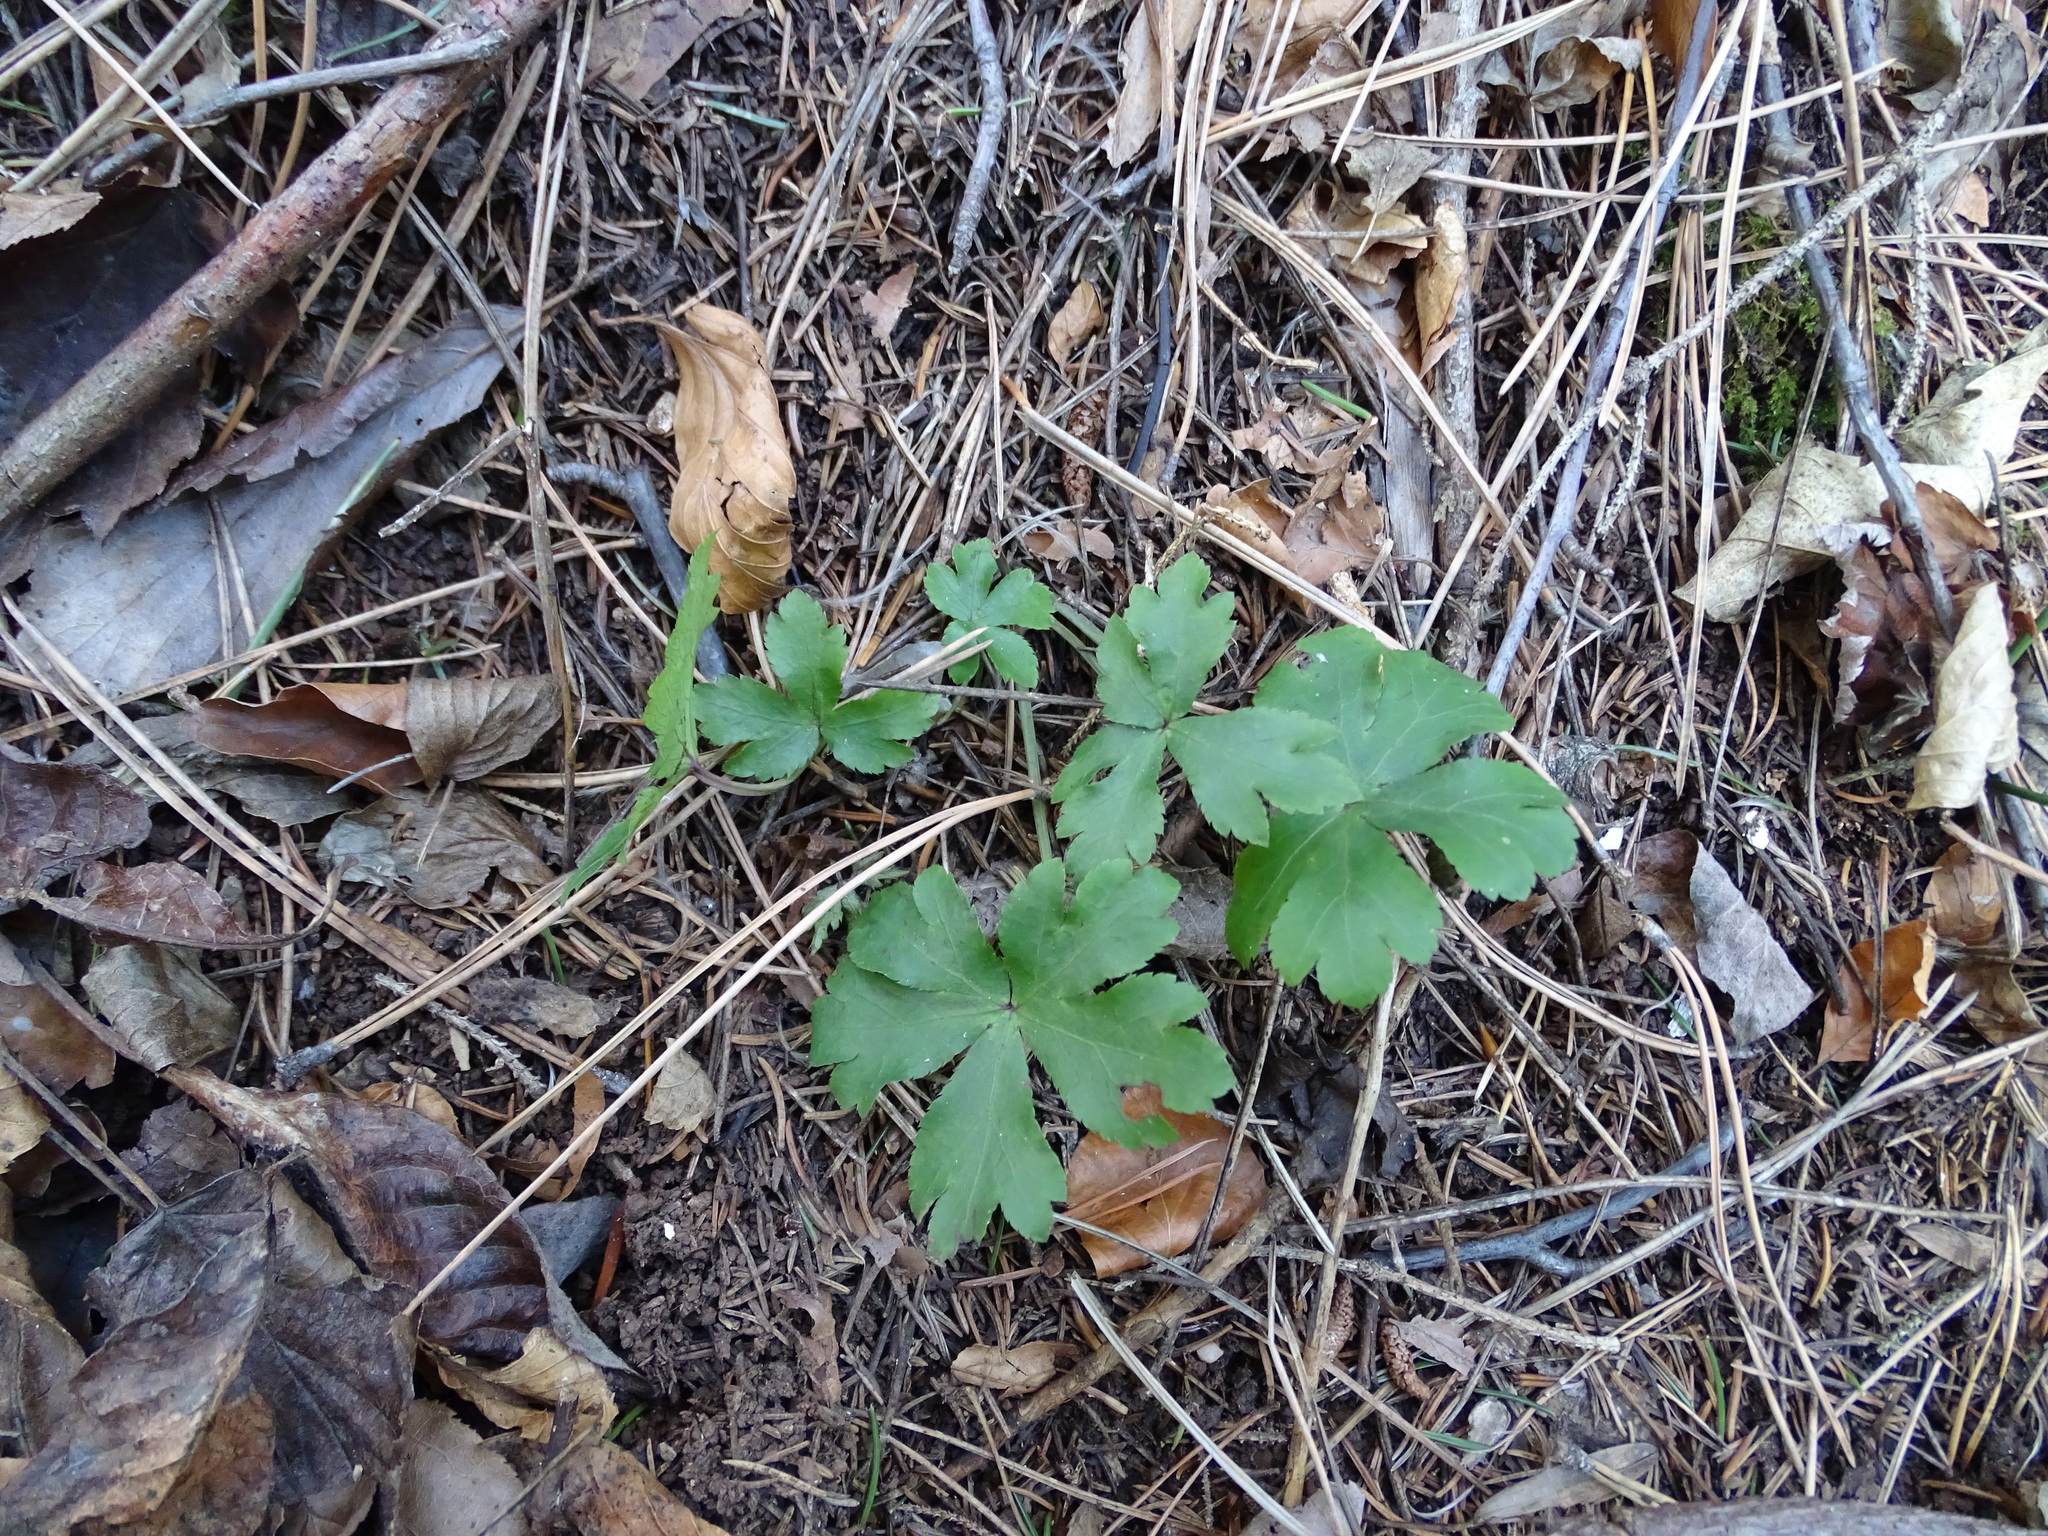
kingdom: Plantae
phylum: Tracheophyta
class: Magnoliopsida
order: Apiales
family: Apiaceae
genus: Sanicula
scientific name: Sanicula europaea
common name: Sanicle
